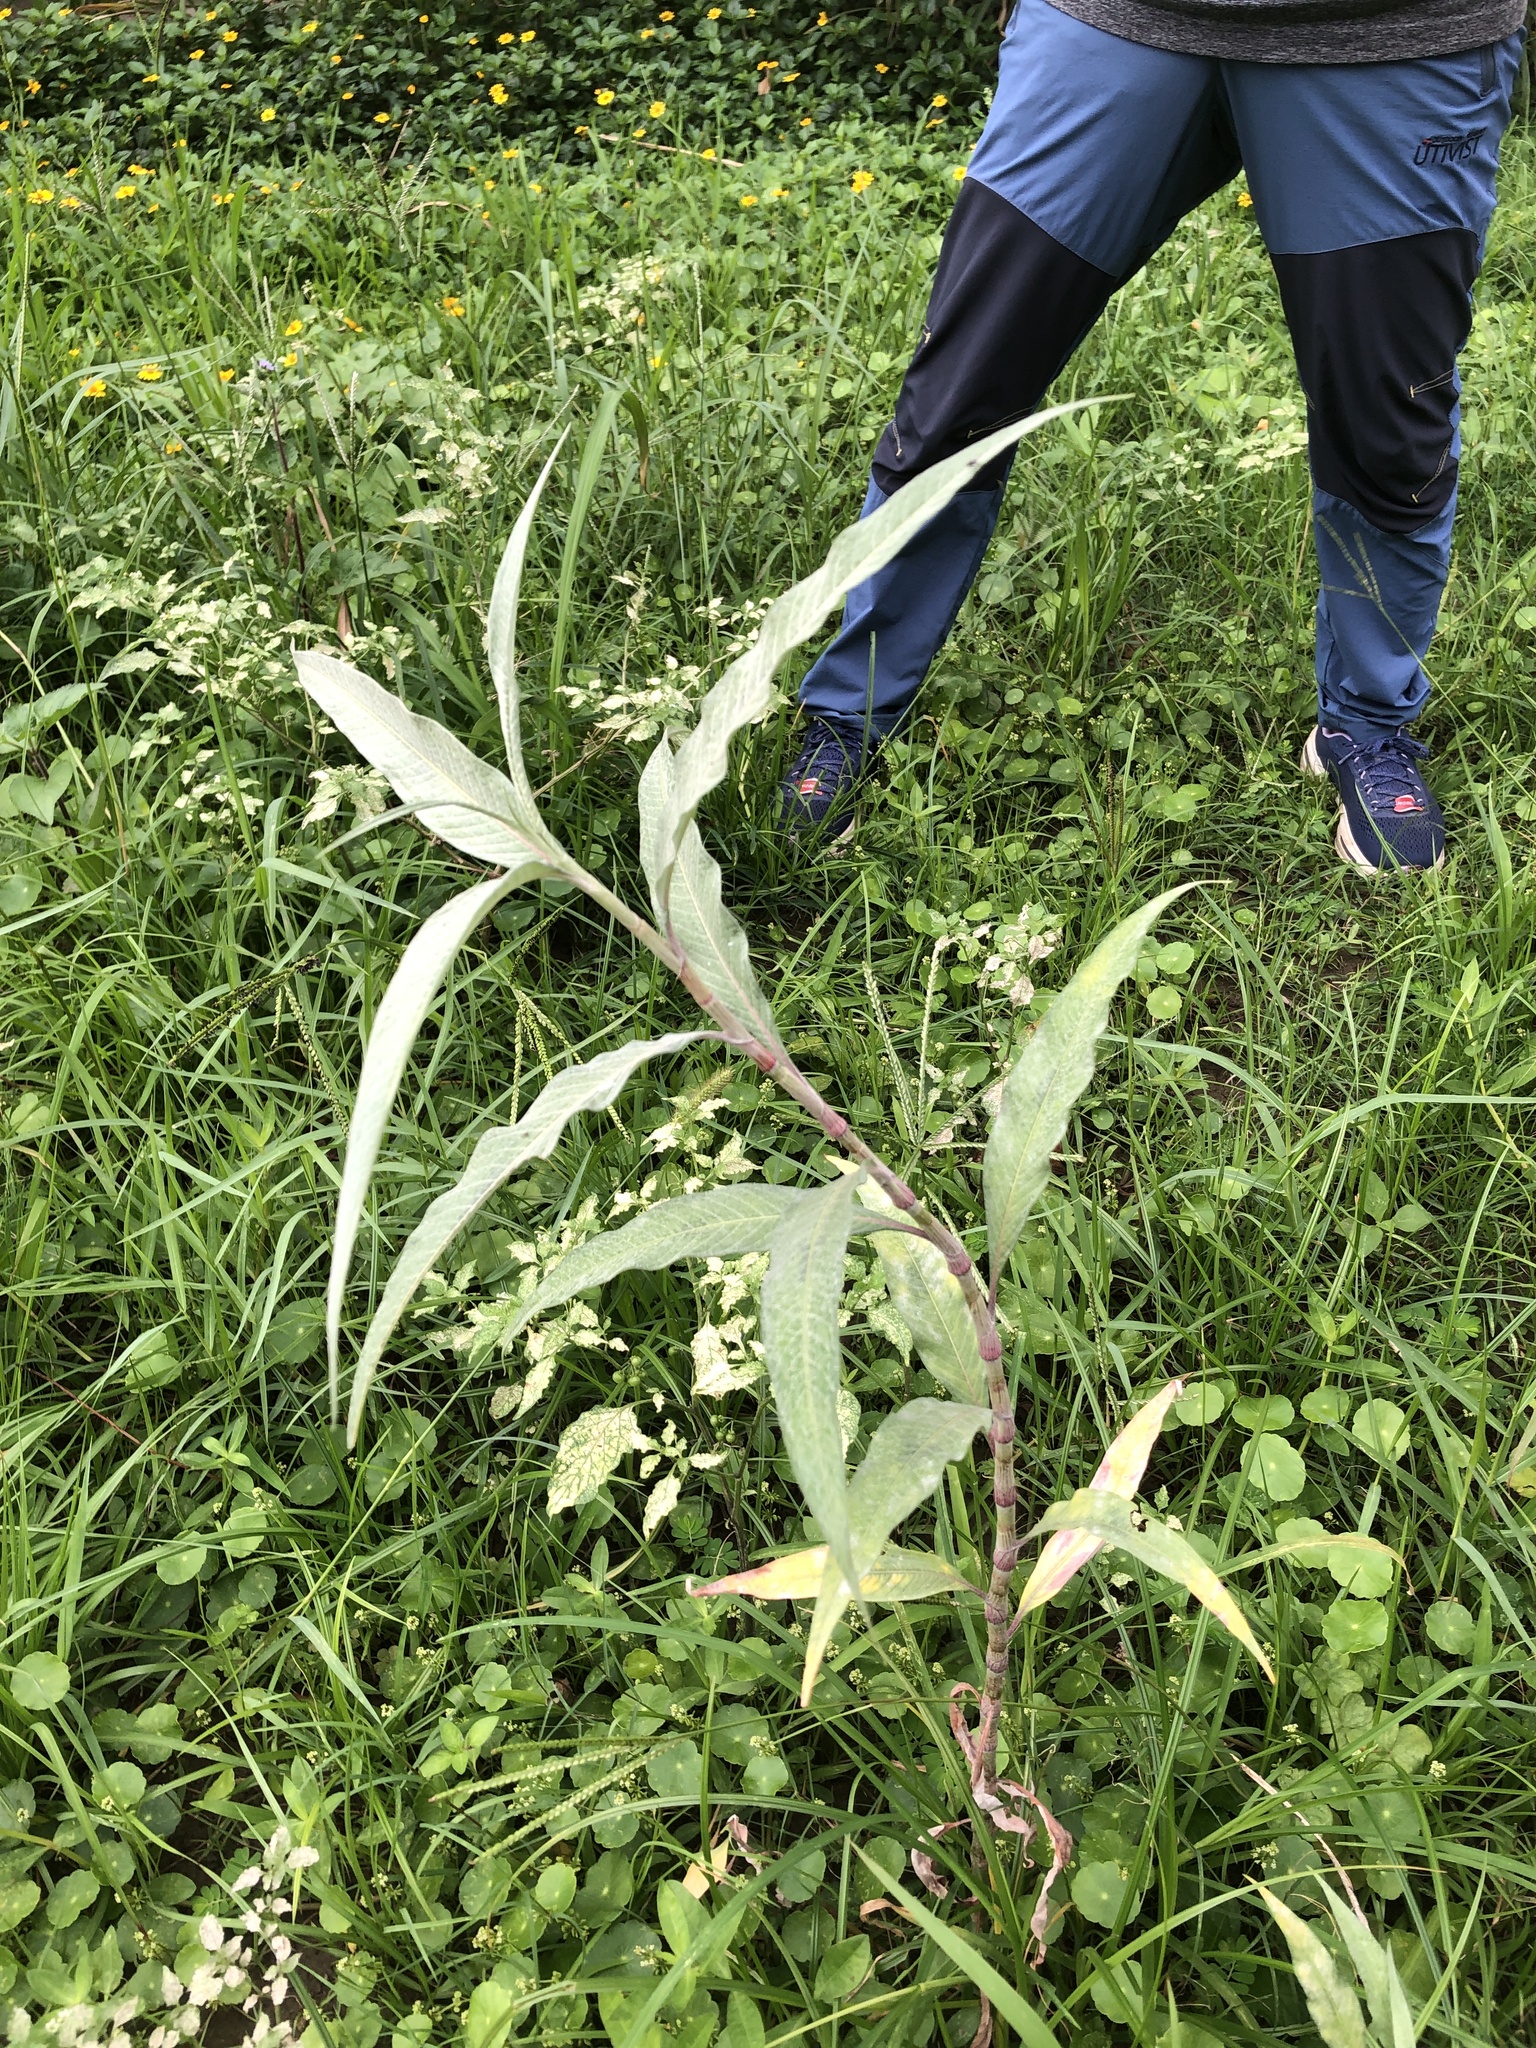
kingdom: Plantae
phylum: Tracheophyta
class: Magnoliopsida
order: Caryophyllales
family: Polygonaceae
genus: Persicaria
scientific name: Persicaria lanata
